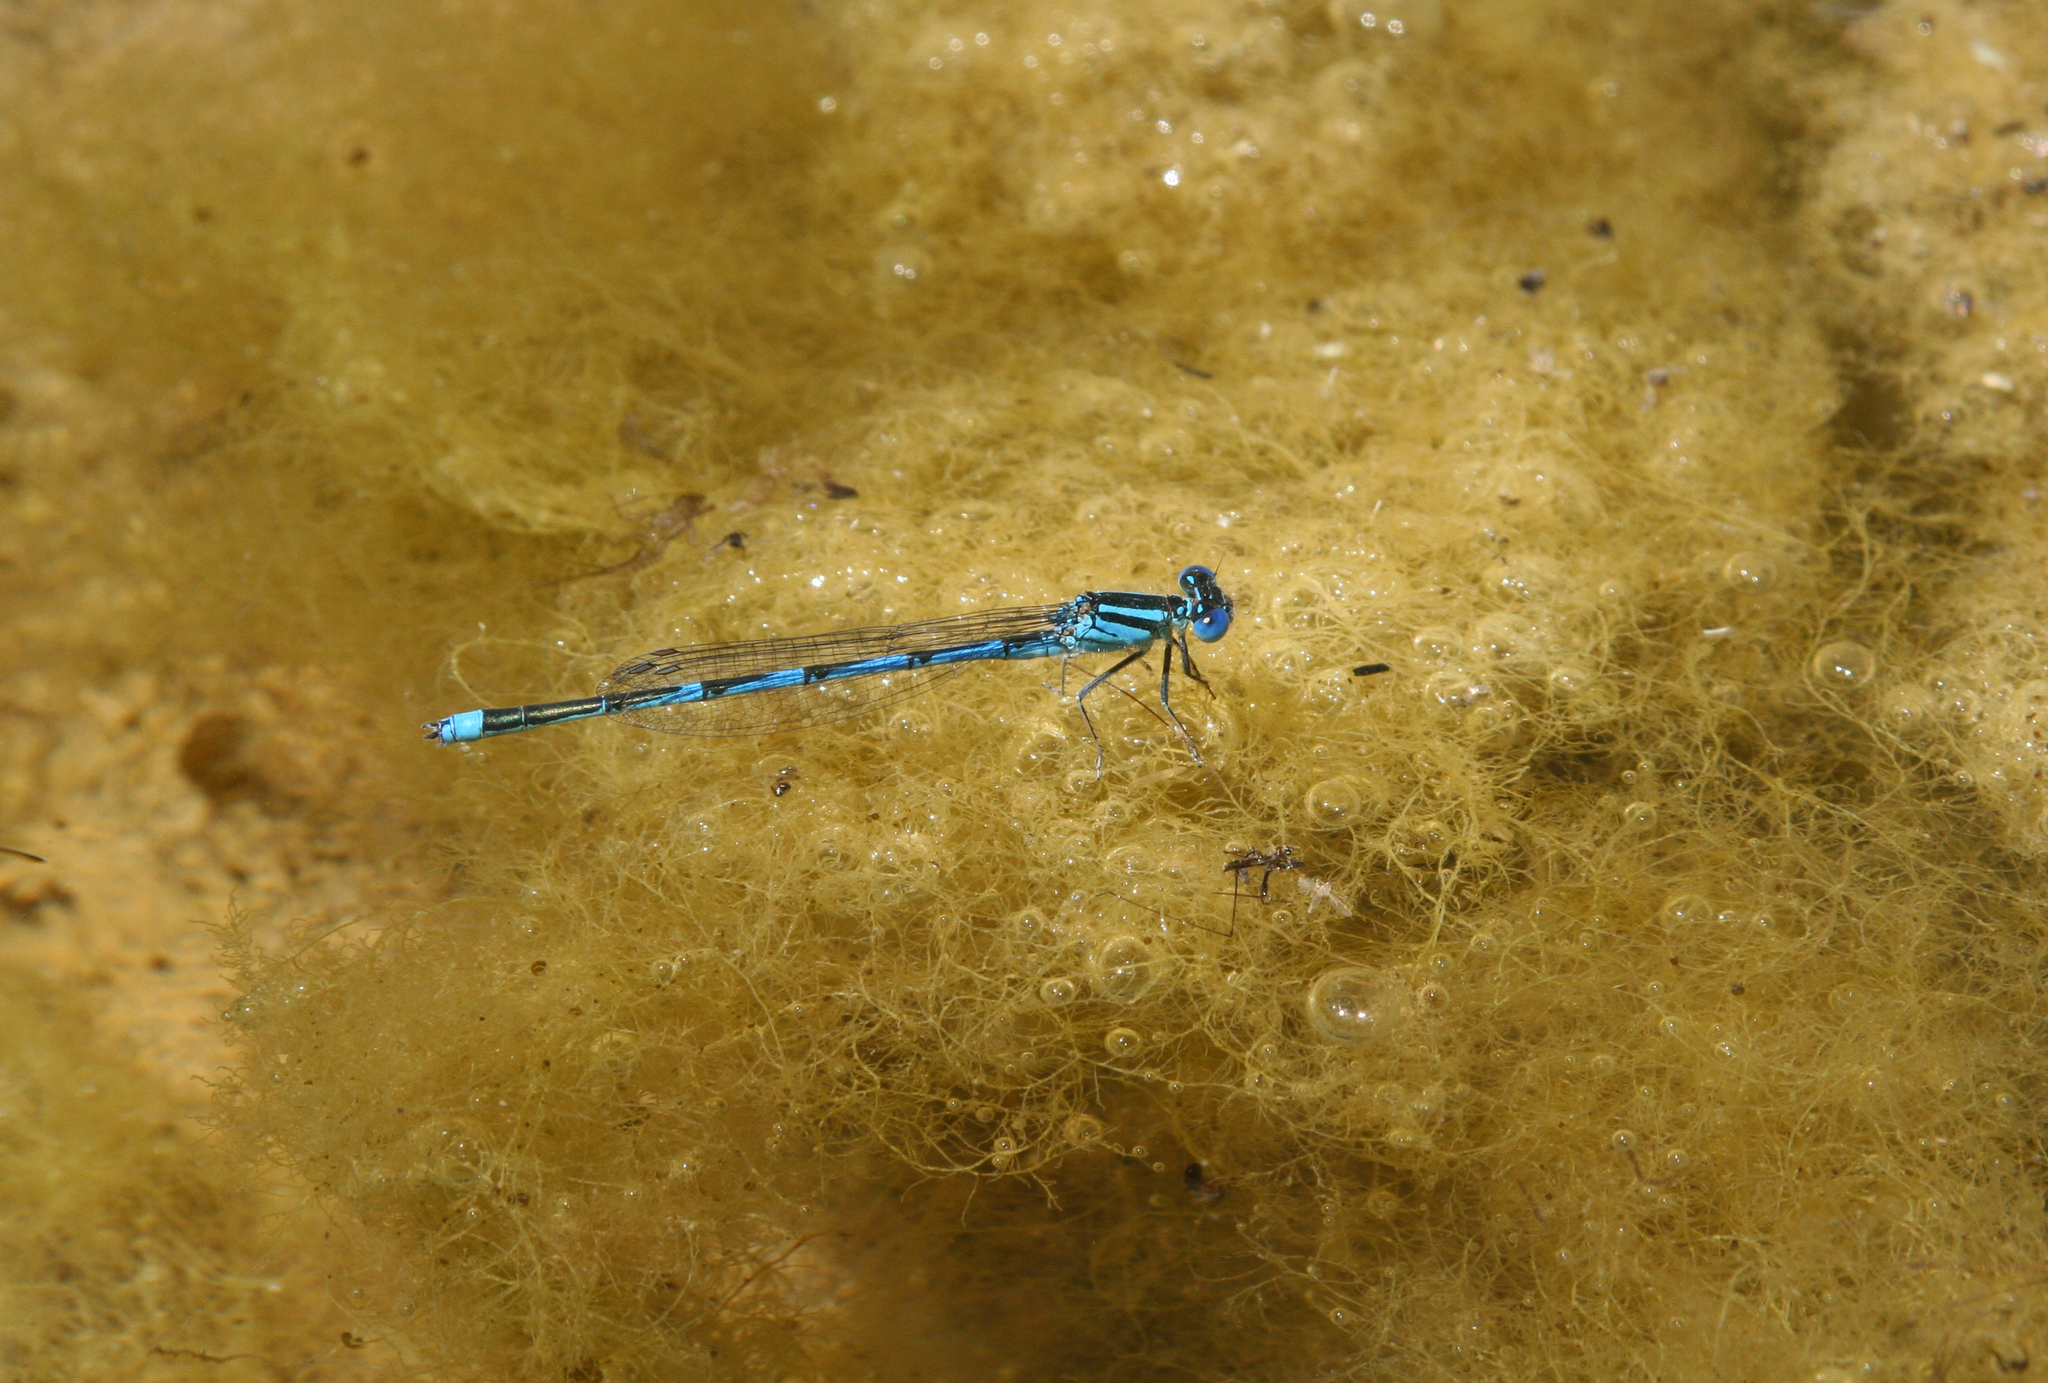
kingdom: Animalia
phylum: Arthropoda
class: Insecta
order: Odonata
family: Coenagrionidae
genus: Erythromma
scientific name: Erythromma lindenii
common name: Blue-eye
